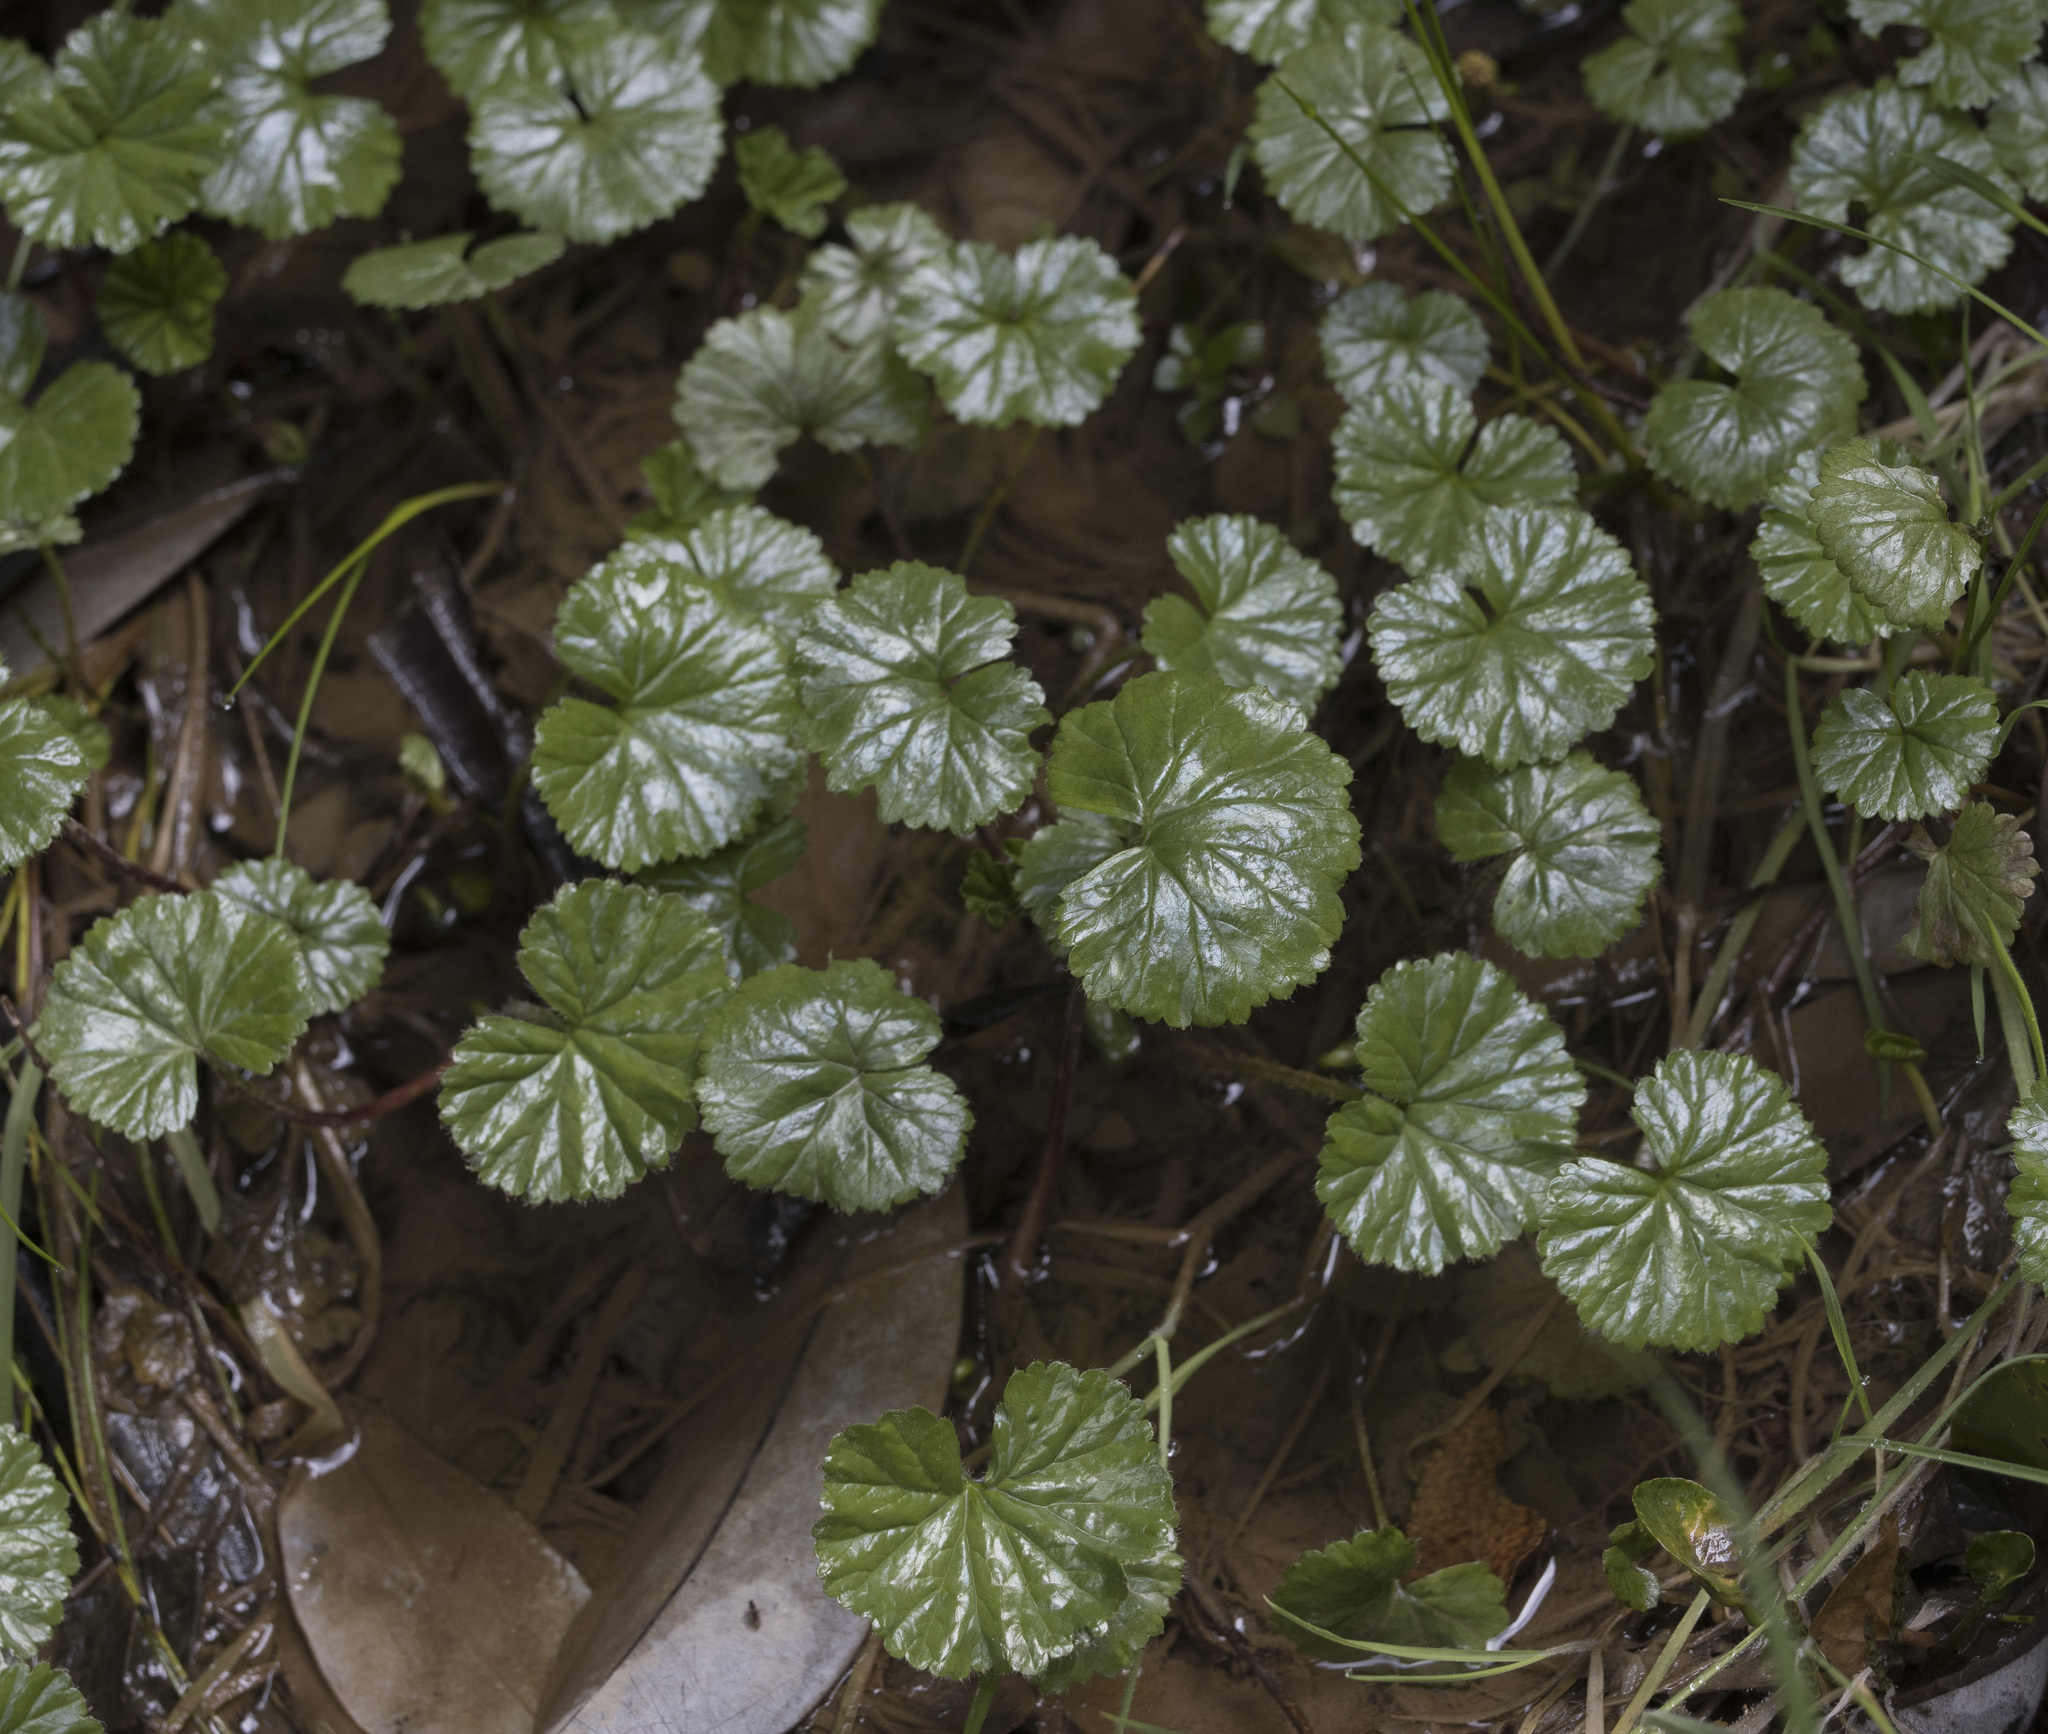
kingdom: Plantae
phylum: Tracheophyta
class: Magnoliopsida
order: Gunnerales
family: Gunneraceae
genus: Gunnera
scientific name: Gunnera magellanica
